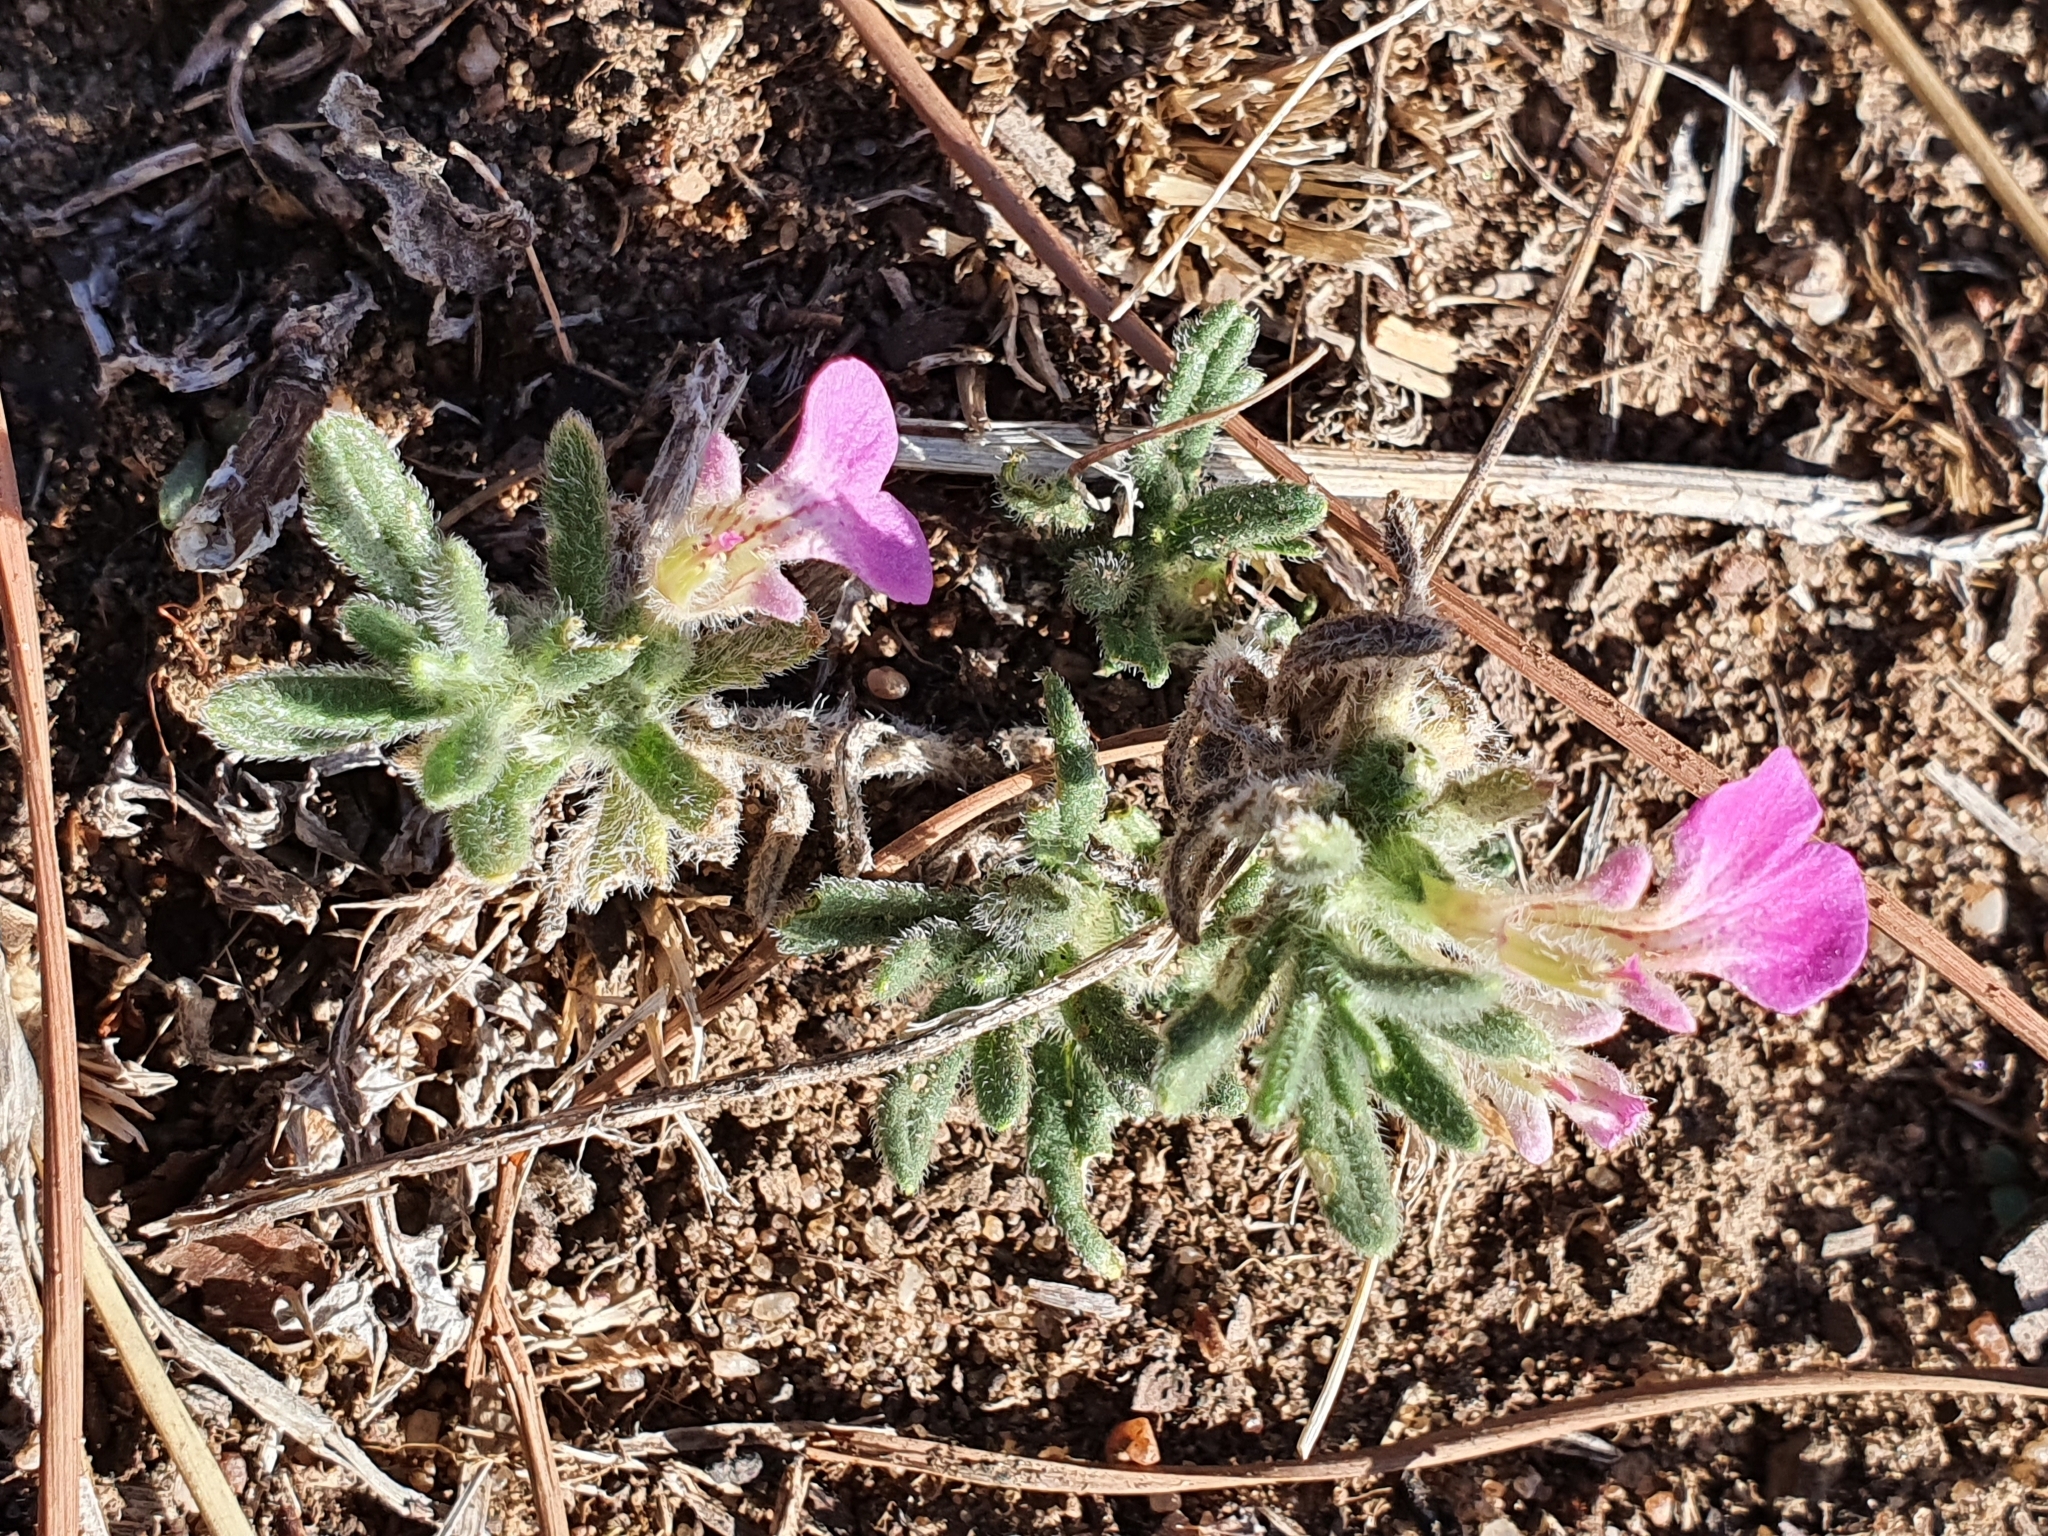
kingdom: Plantae
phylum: Tracheophyta
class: Magnoliopsida
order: Lamiales
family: Lamiaceae
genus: Ajuga
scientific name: Ajuga iva
